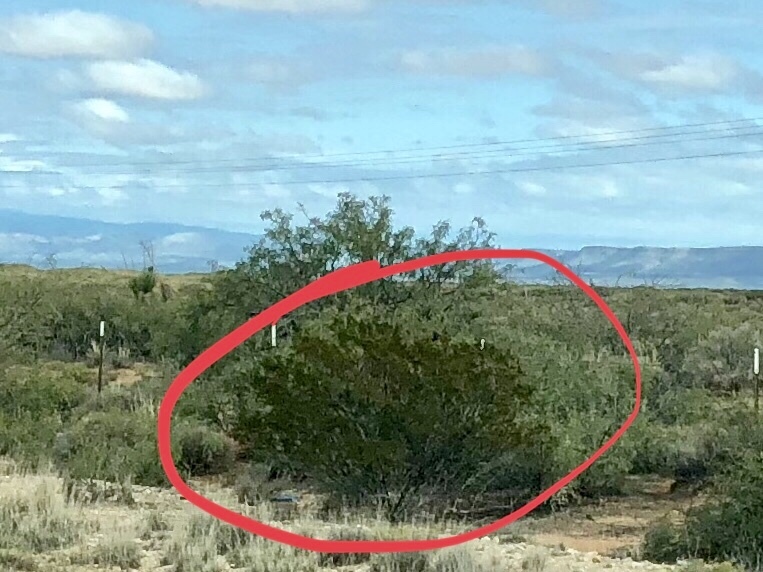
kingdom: Plantae
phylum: Tracheophyta
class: Magnoliopsida
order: Zygophyllales
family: Zygophyllaceae
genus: Larrea
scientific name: Larrea tridentata
